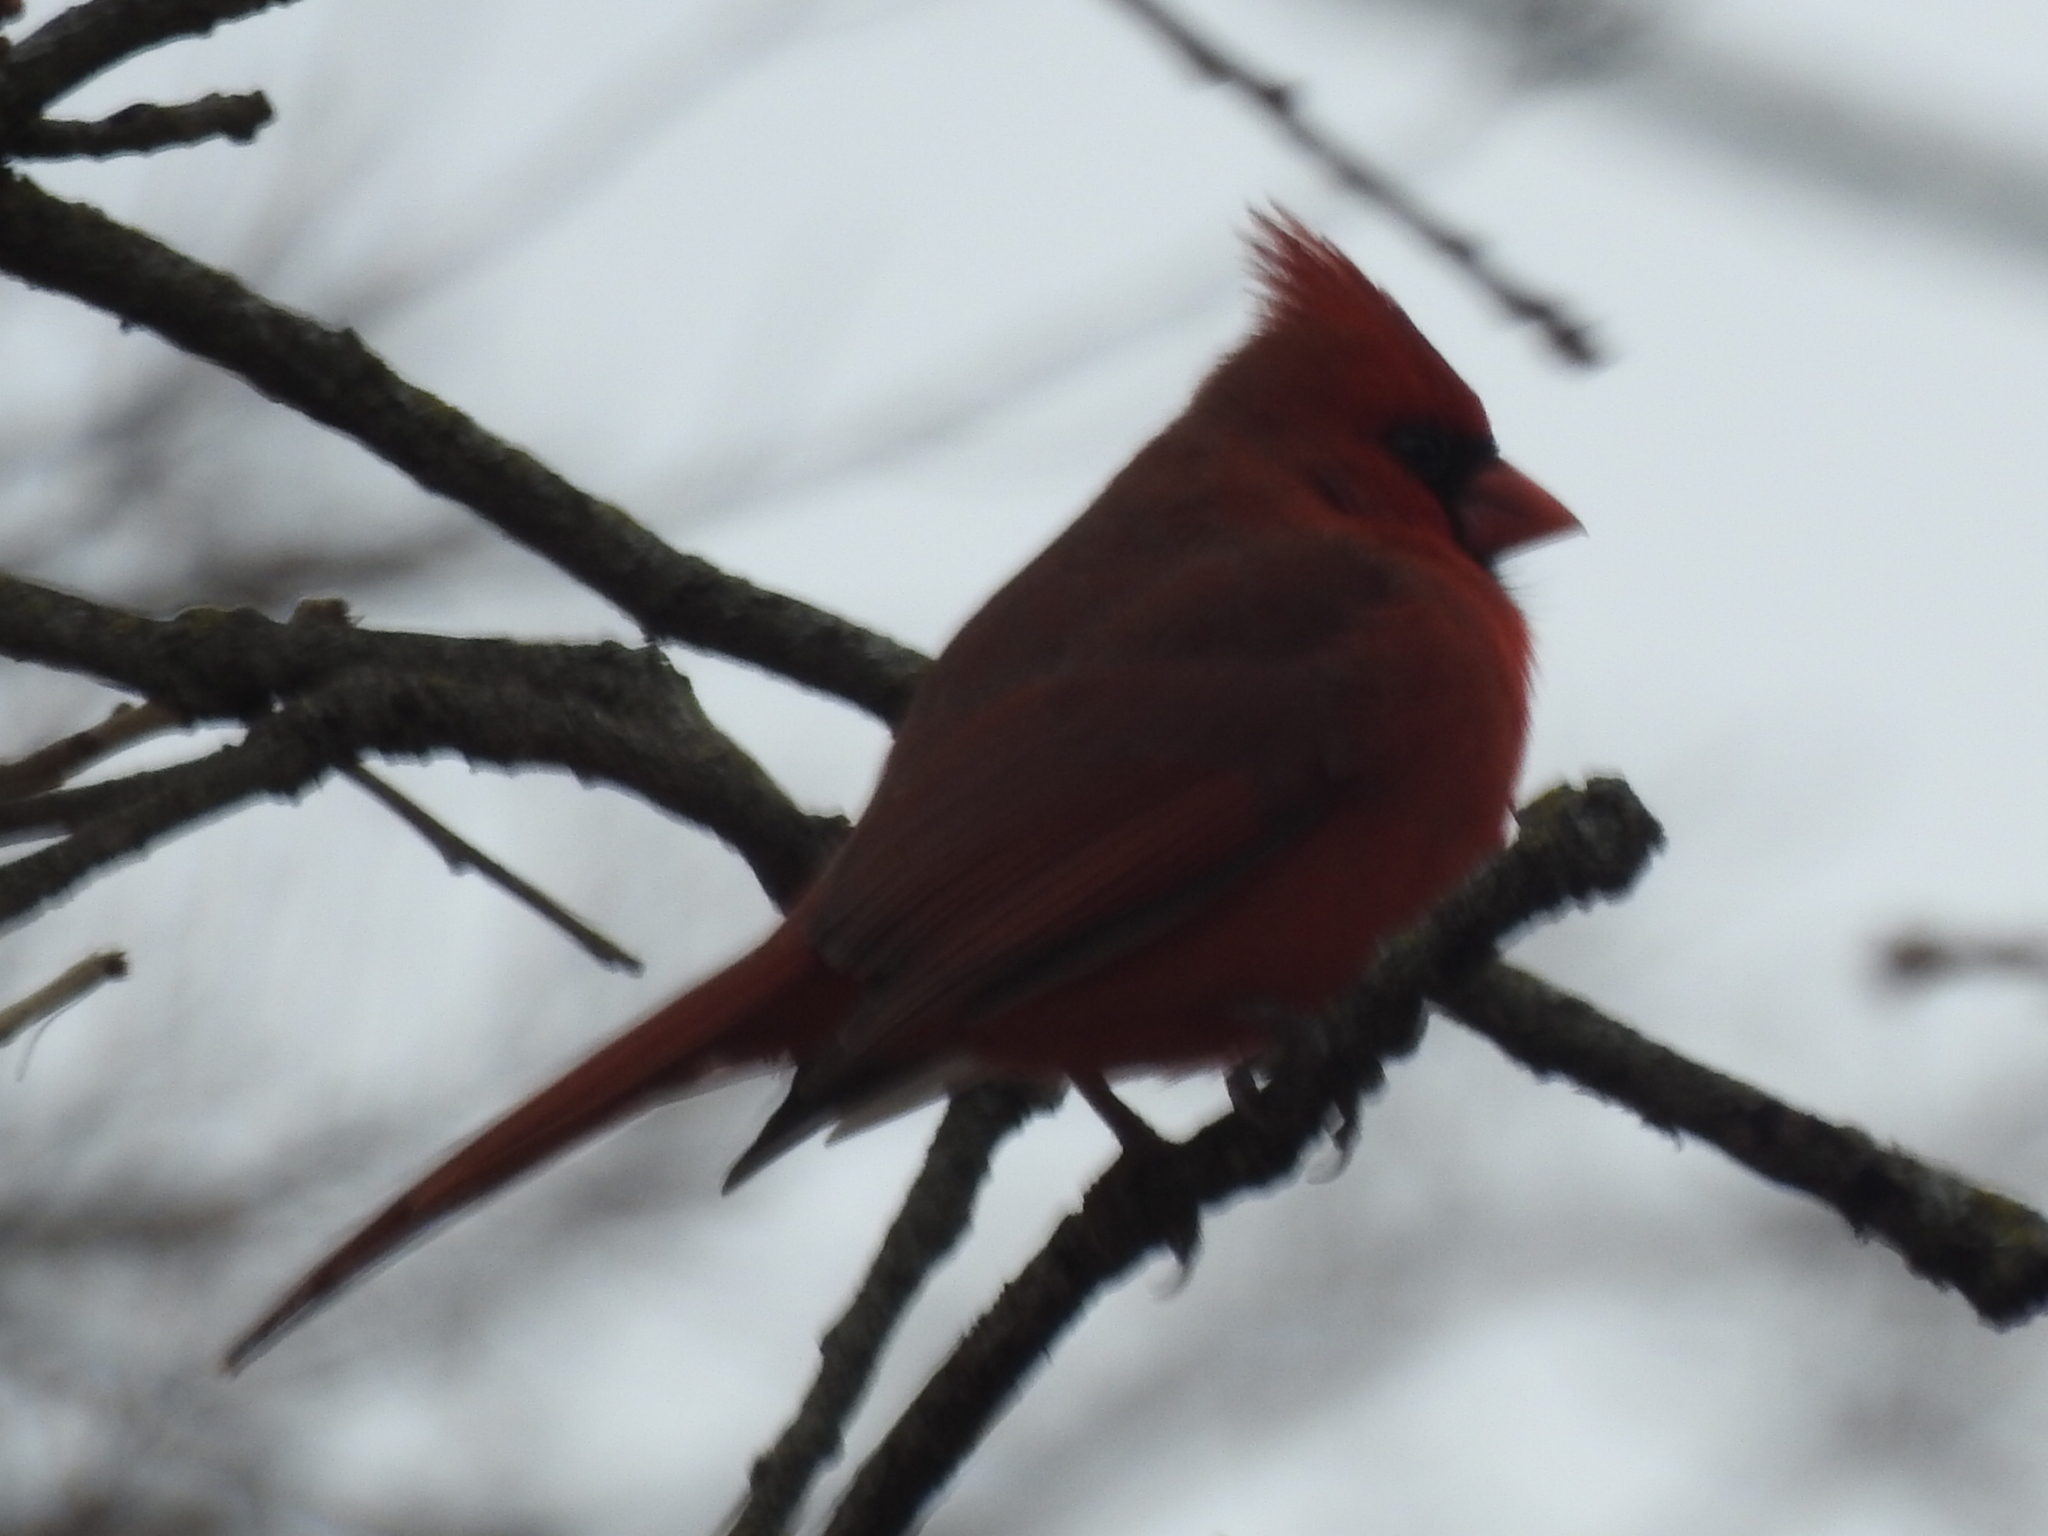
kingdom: Animalia
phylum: Chordata
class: Aves
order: Passeriformes
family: Cardinalidae
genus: Cardinalis
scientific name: Cardinalis cardinalis
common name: Northern cardinal
